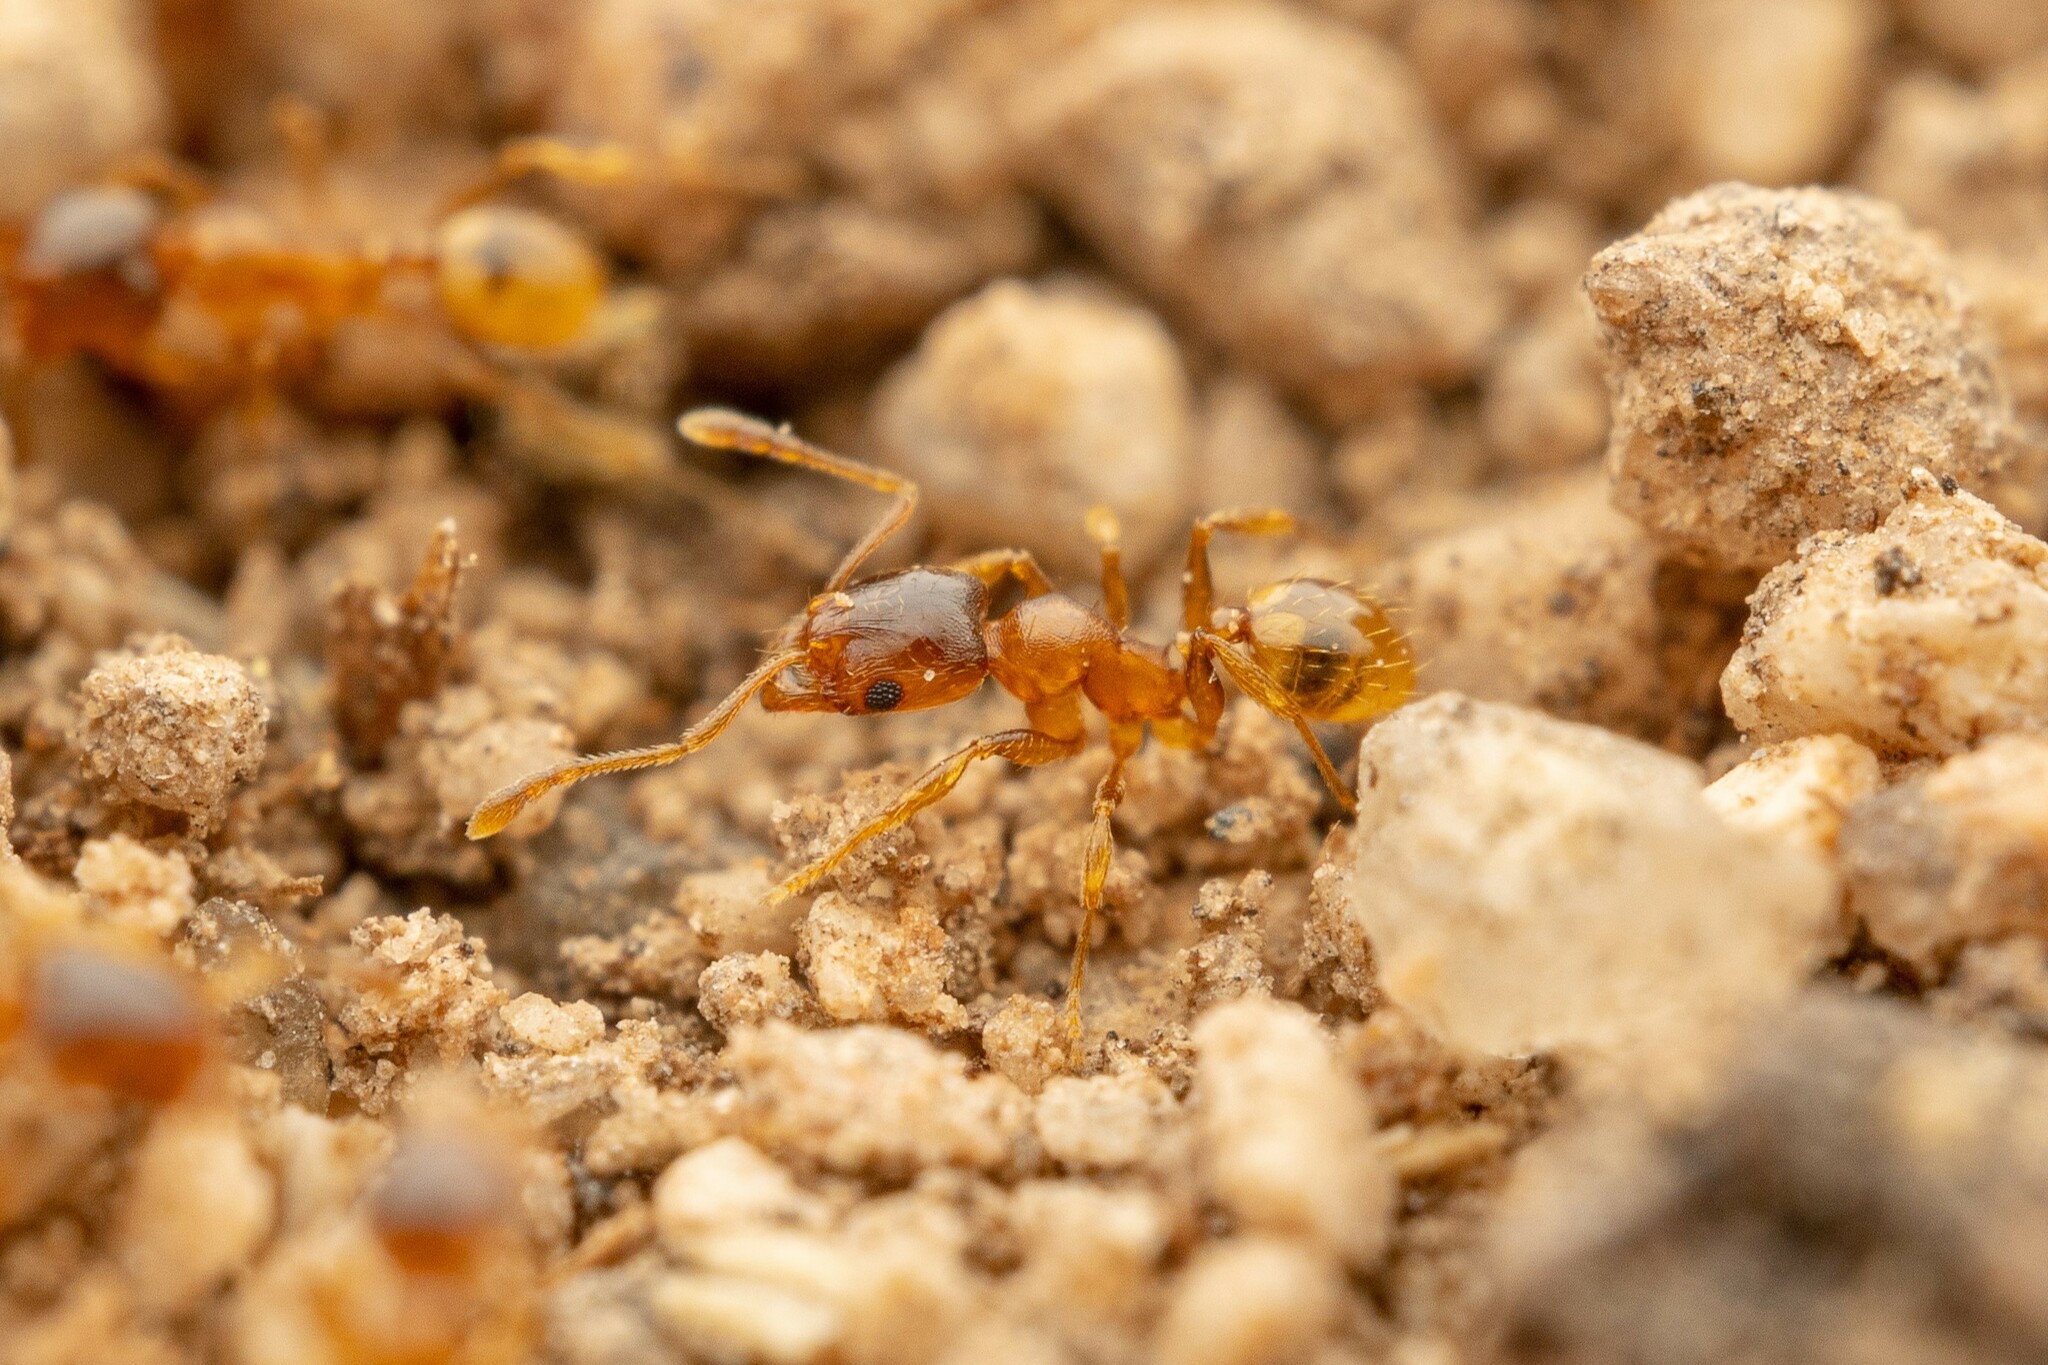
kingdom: Animalia
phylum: Arthropoda
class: Insecta
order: Hymenoptera
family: Formicidae
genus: Pheidole
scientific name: Pheidole cerebrosior
